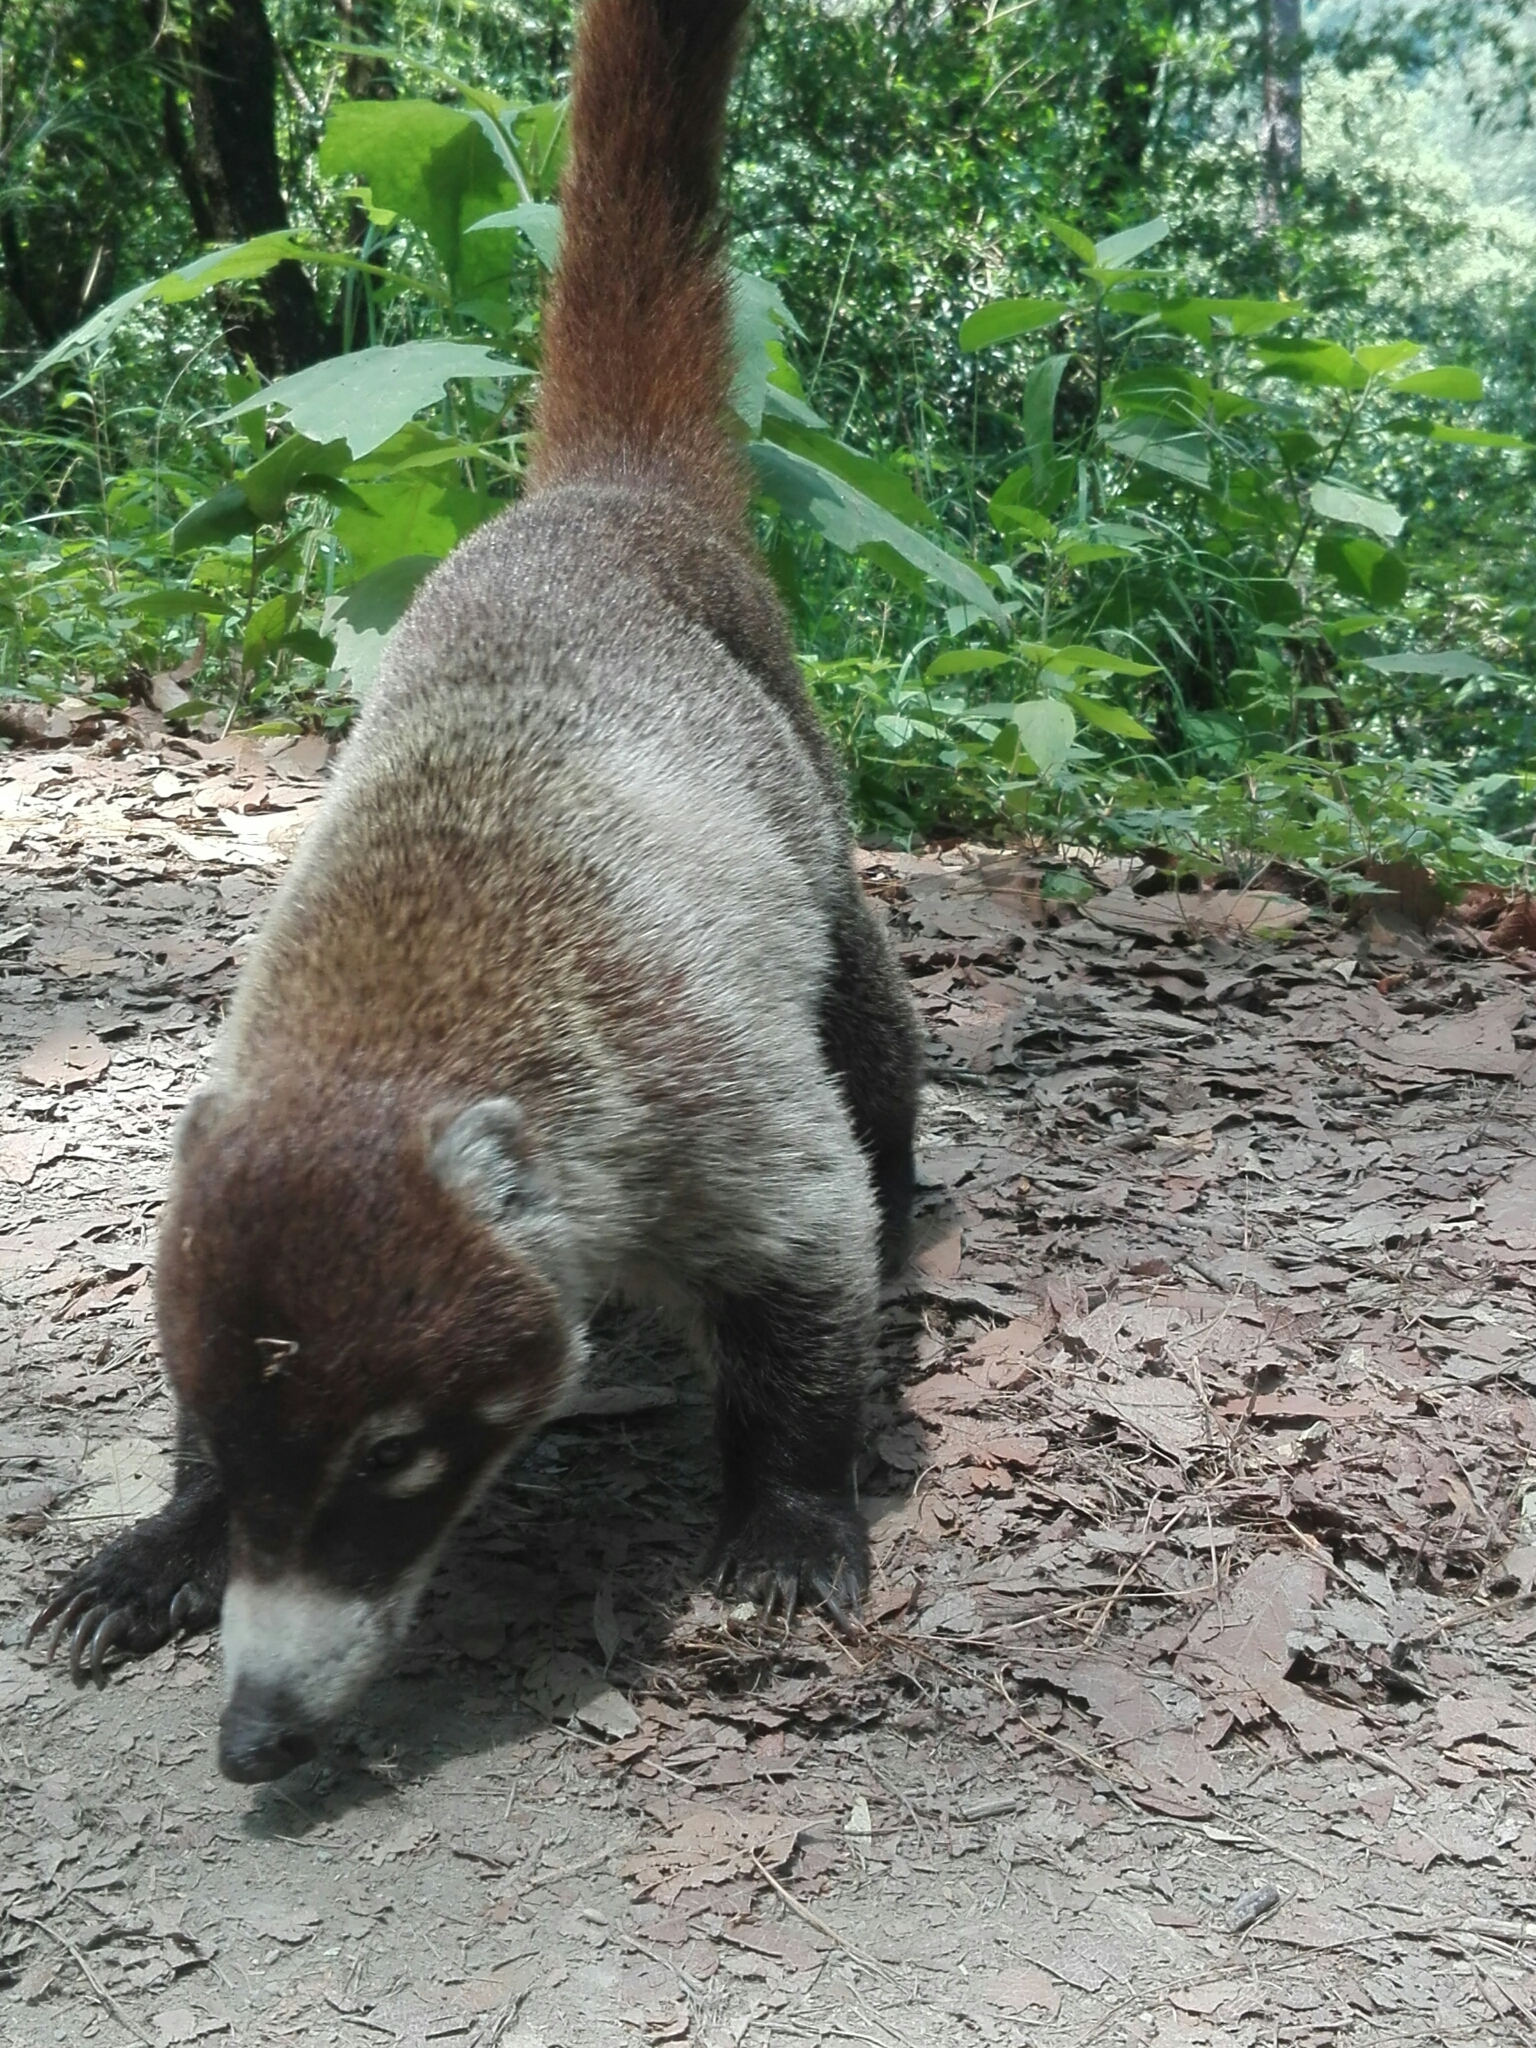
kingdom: Animalia
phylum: Chordata
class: Mammalia
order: Carnivora
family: Procyonidae
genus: Nasua
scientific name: Nasua narica
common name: White-nosed coati
